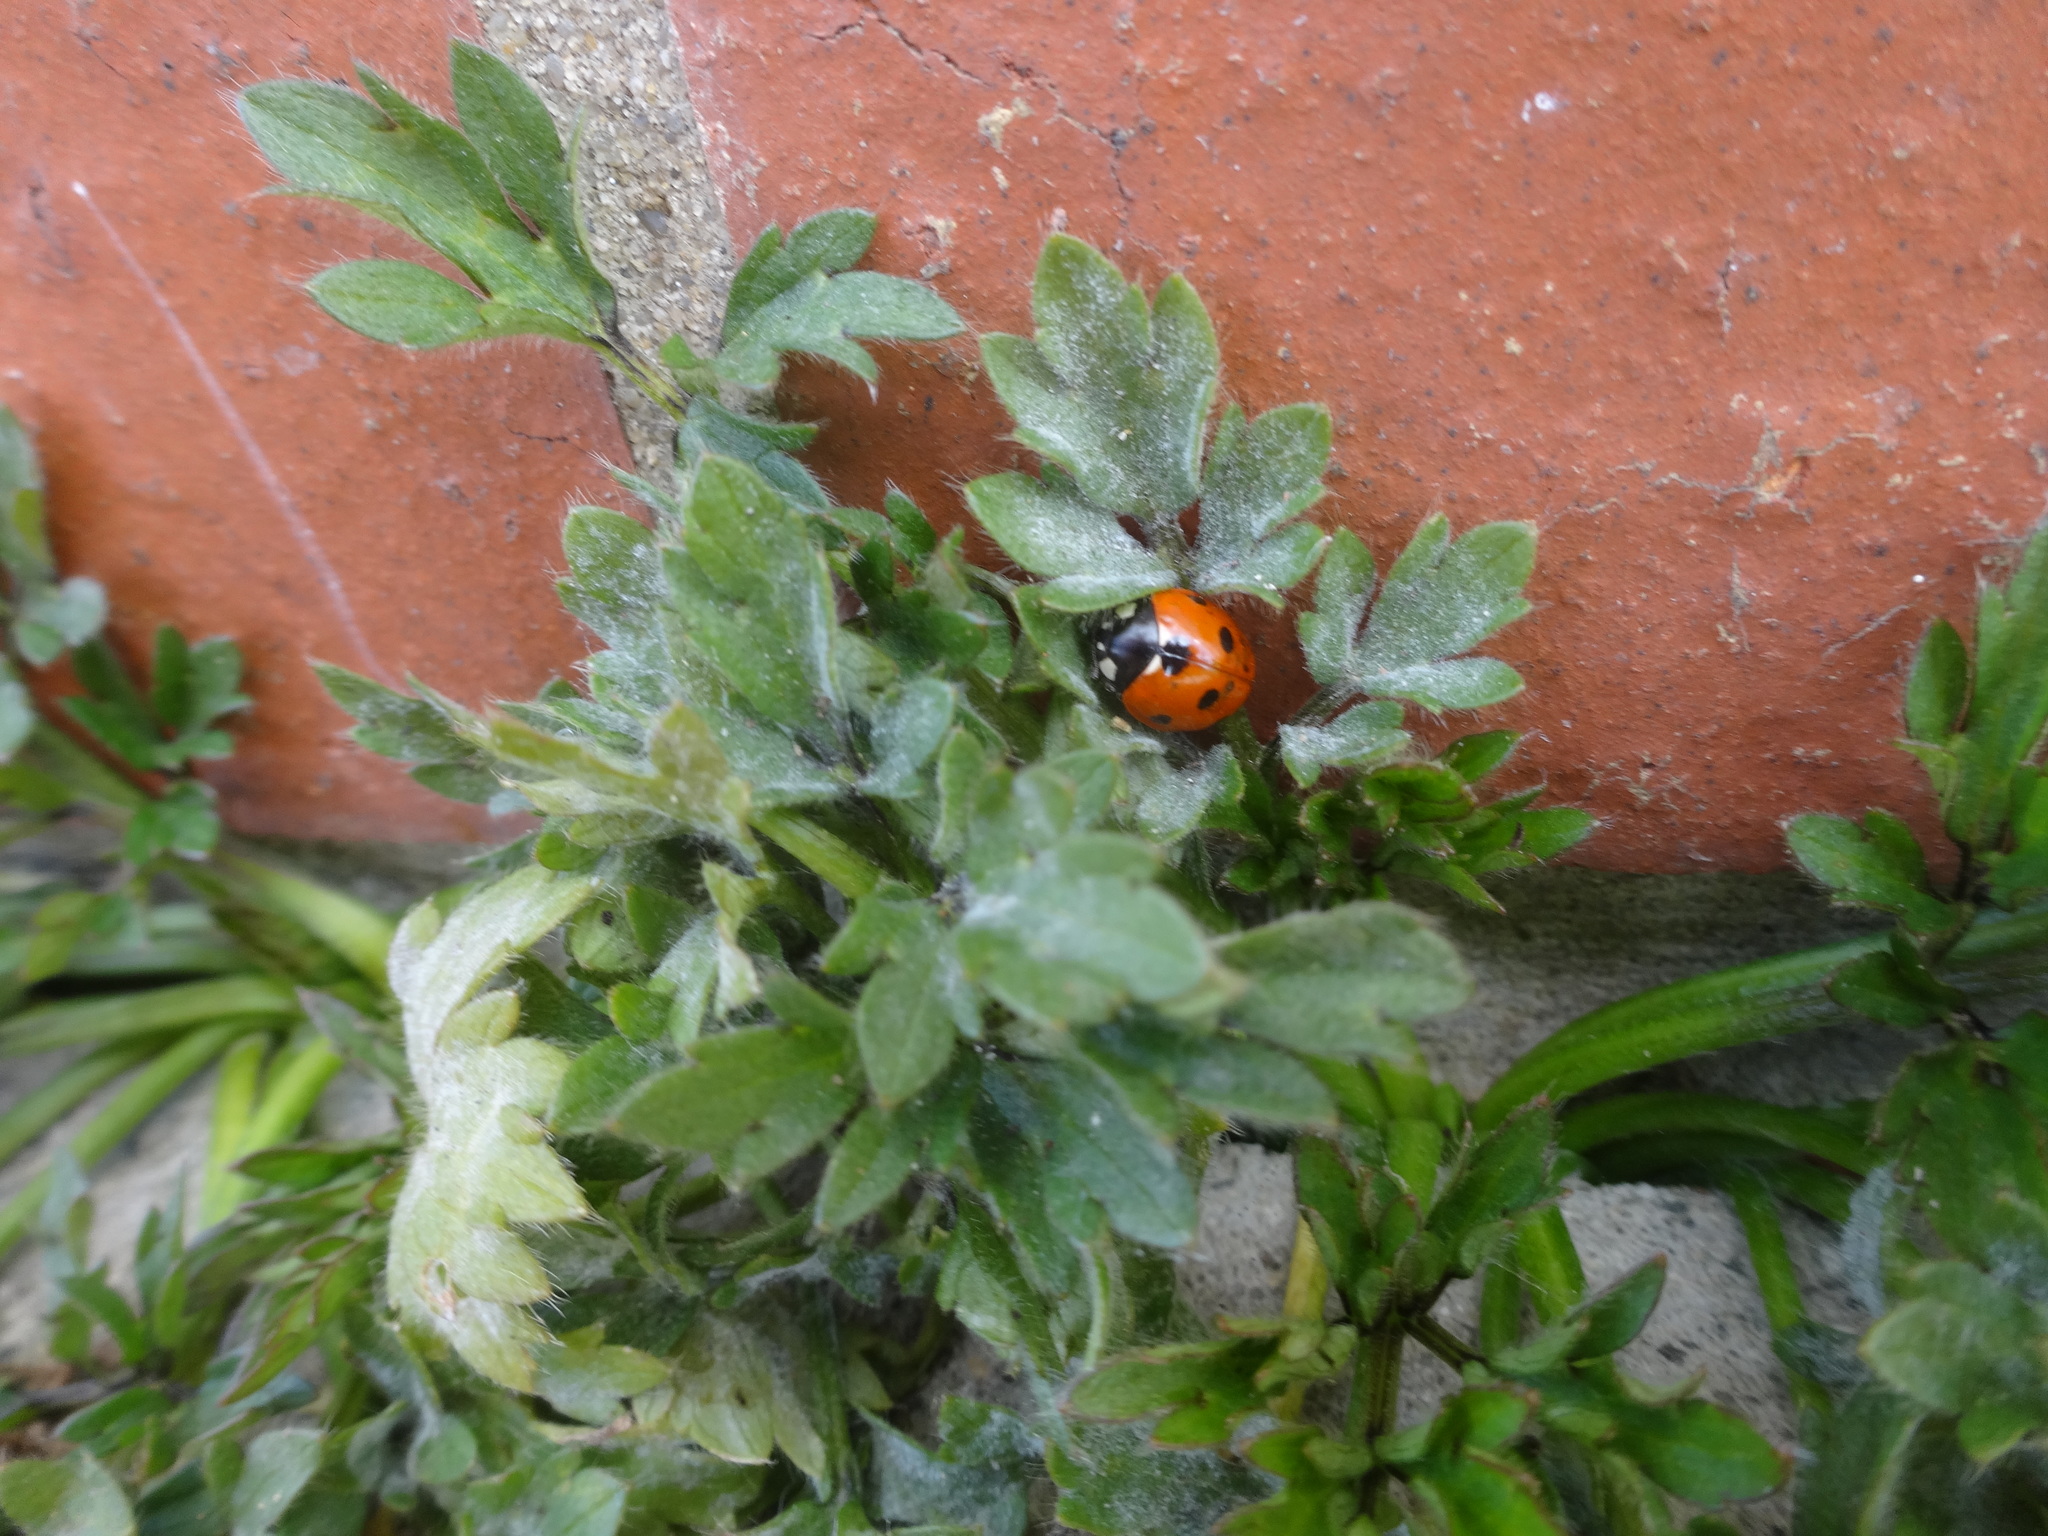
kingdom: Animalia
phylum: Arthropoda
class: Insecta
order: Coleoptera
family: Coccinellidae
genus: Coccinella
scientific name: Coccinella septempunctata
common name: Sevenspotted lady beetle
